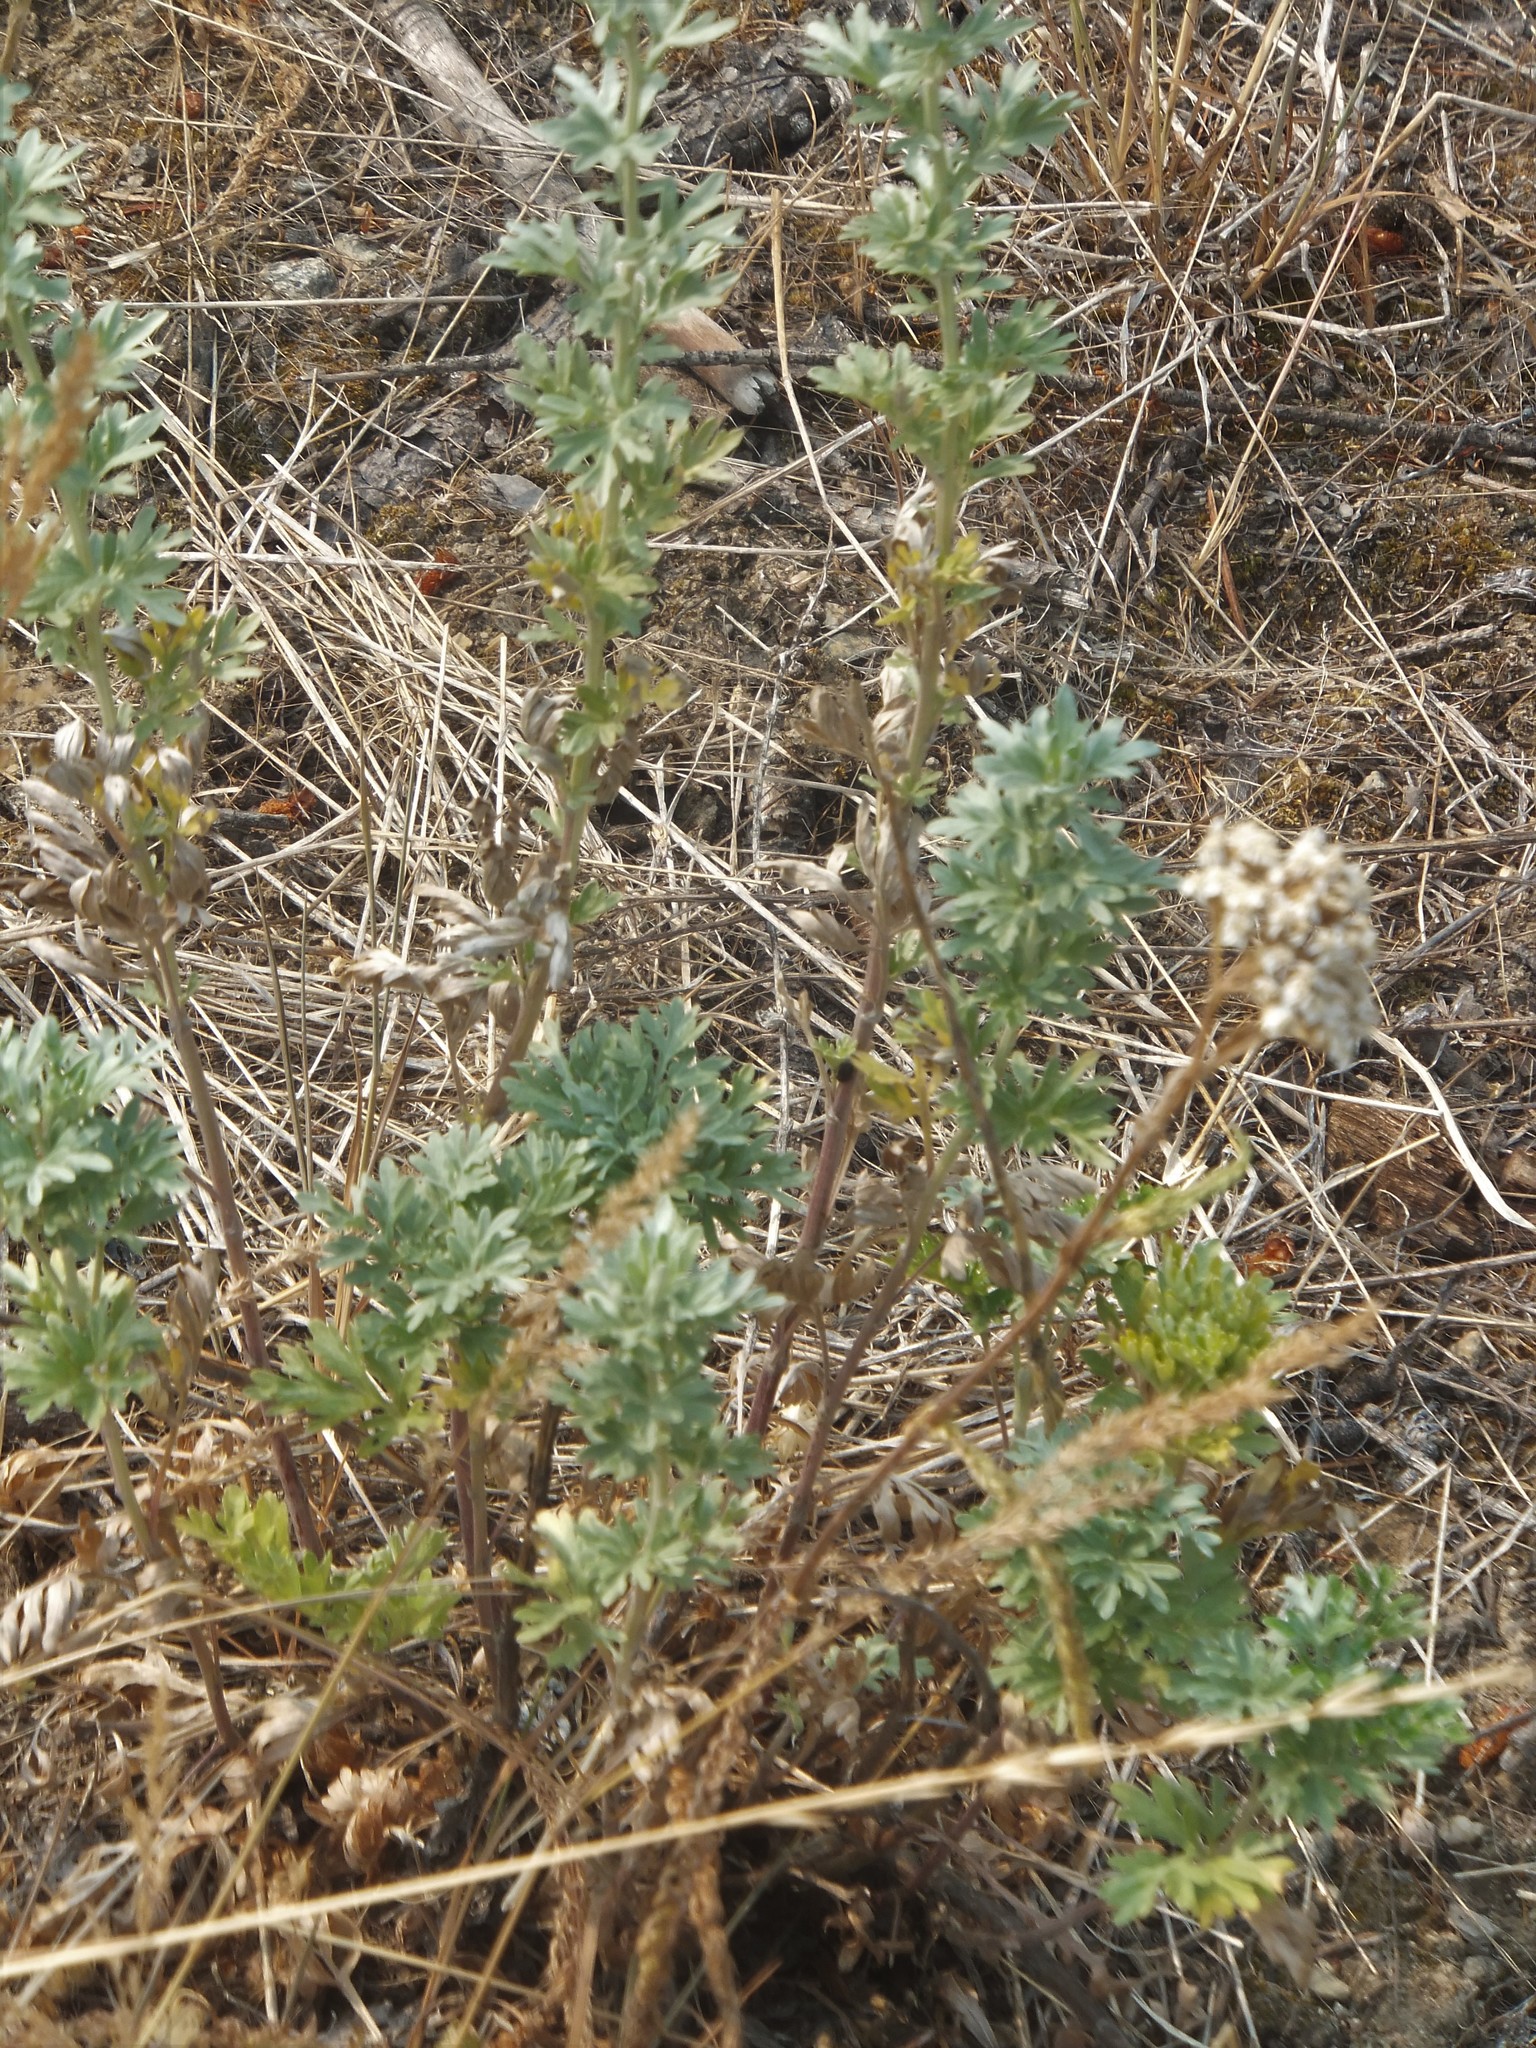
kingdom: Plantae
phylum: Tracheophyta
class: Magnoliopsida
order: Asterales
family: Asteraceae
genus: Artemisia
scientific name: Artemisia absinthium
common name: Wormwood
